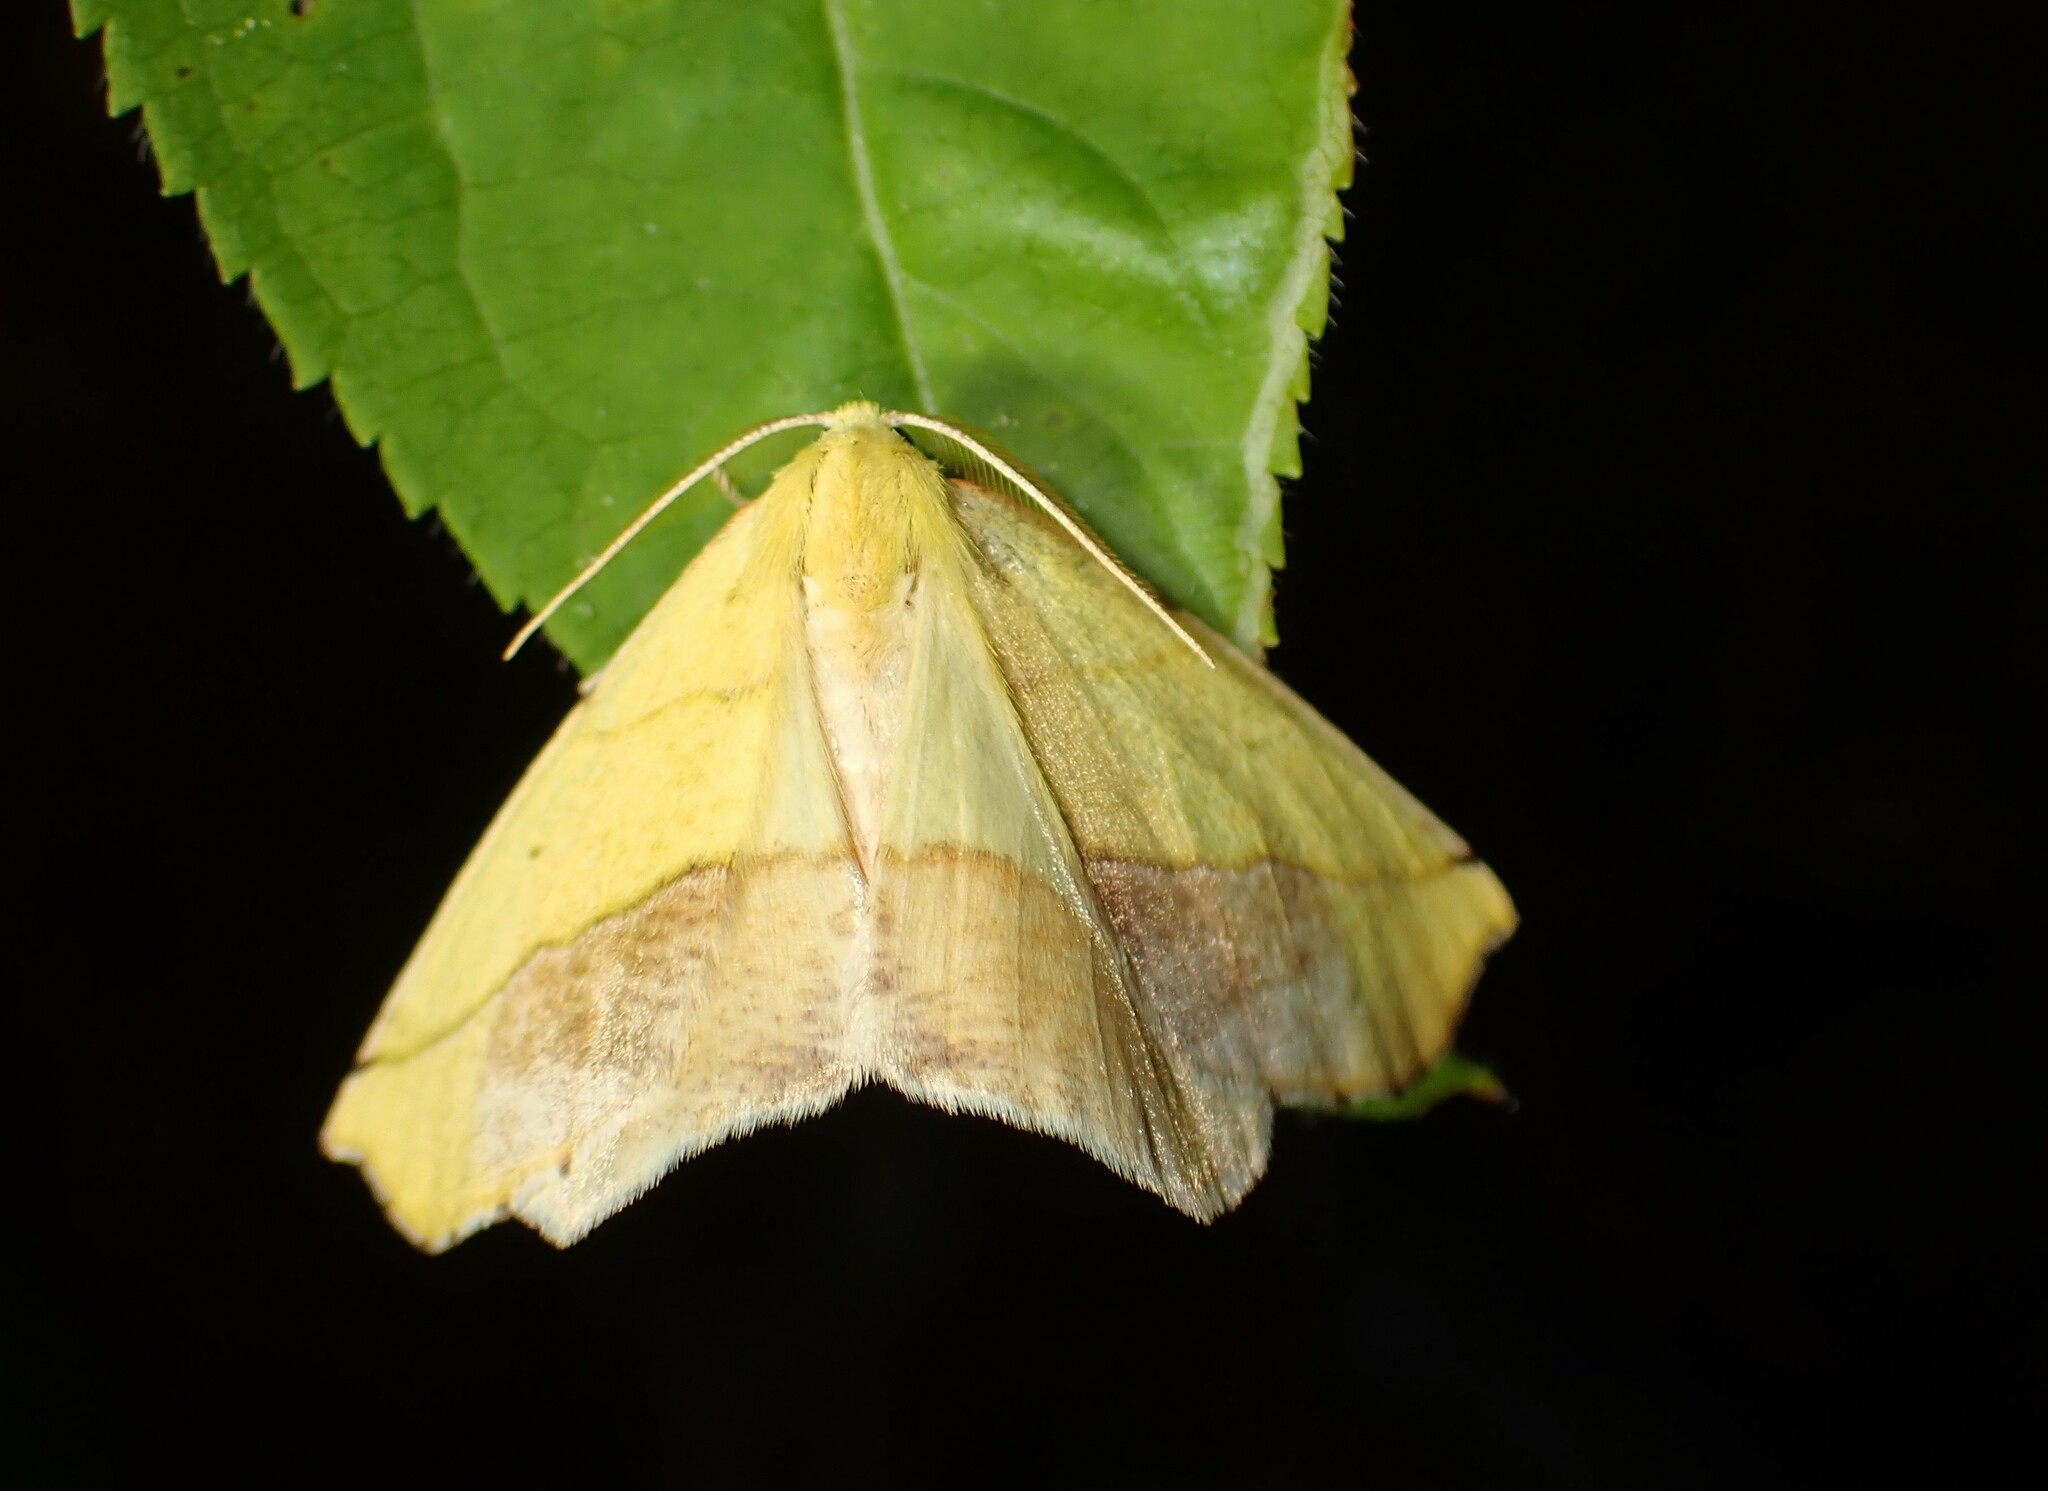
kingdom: Animalia
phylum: Arthropoda
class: Insecta
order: Lepidoptera
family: Geometridae
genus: Sicya
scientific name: Sicya macularia
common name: Sharp-lined yellow
